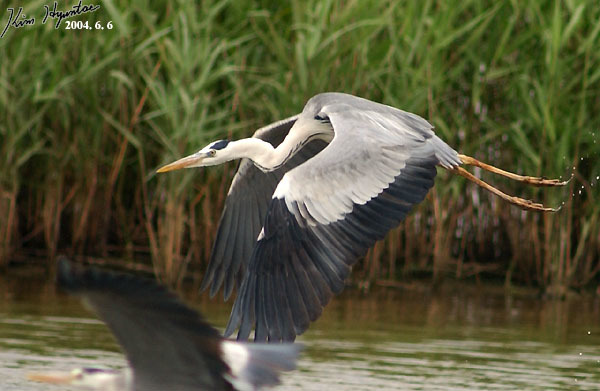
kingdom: Animalia
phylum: Chordata
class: Aves
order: Pelecaniformes
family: Ardeidae
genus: Ardea
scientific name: Ardea cinerea
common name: Grey heron
